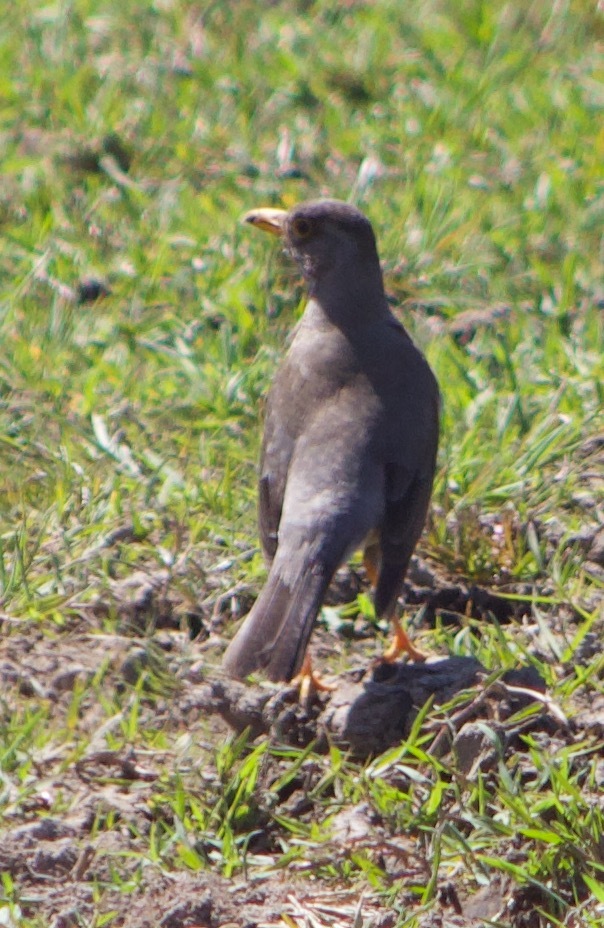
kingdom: Animalia
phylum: Chordata
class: Aves
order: Passeriformes
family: Turdidae
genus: Turdus
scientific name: Turdus falcklandii
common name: Austral thrush
